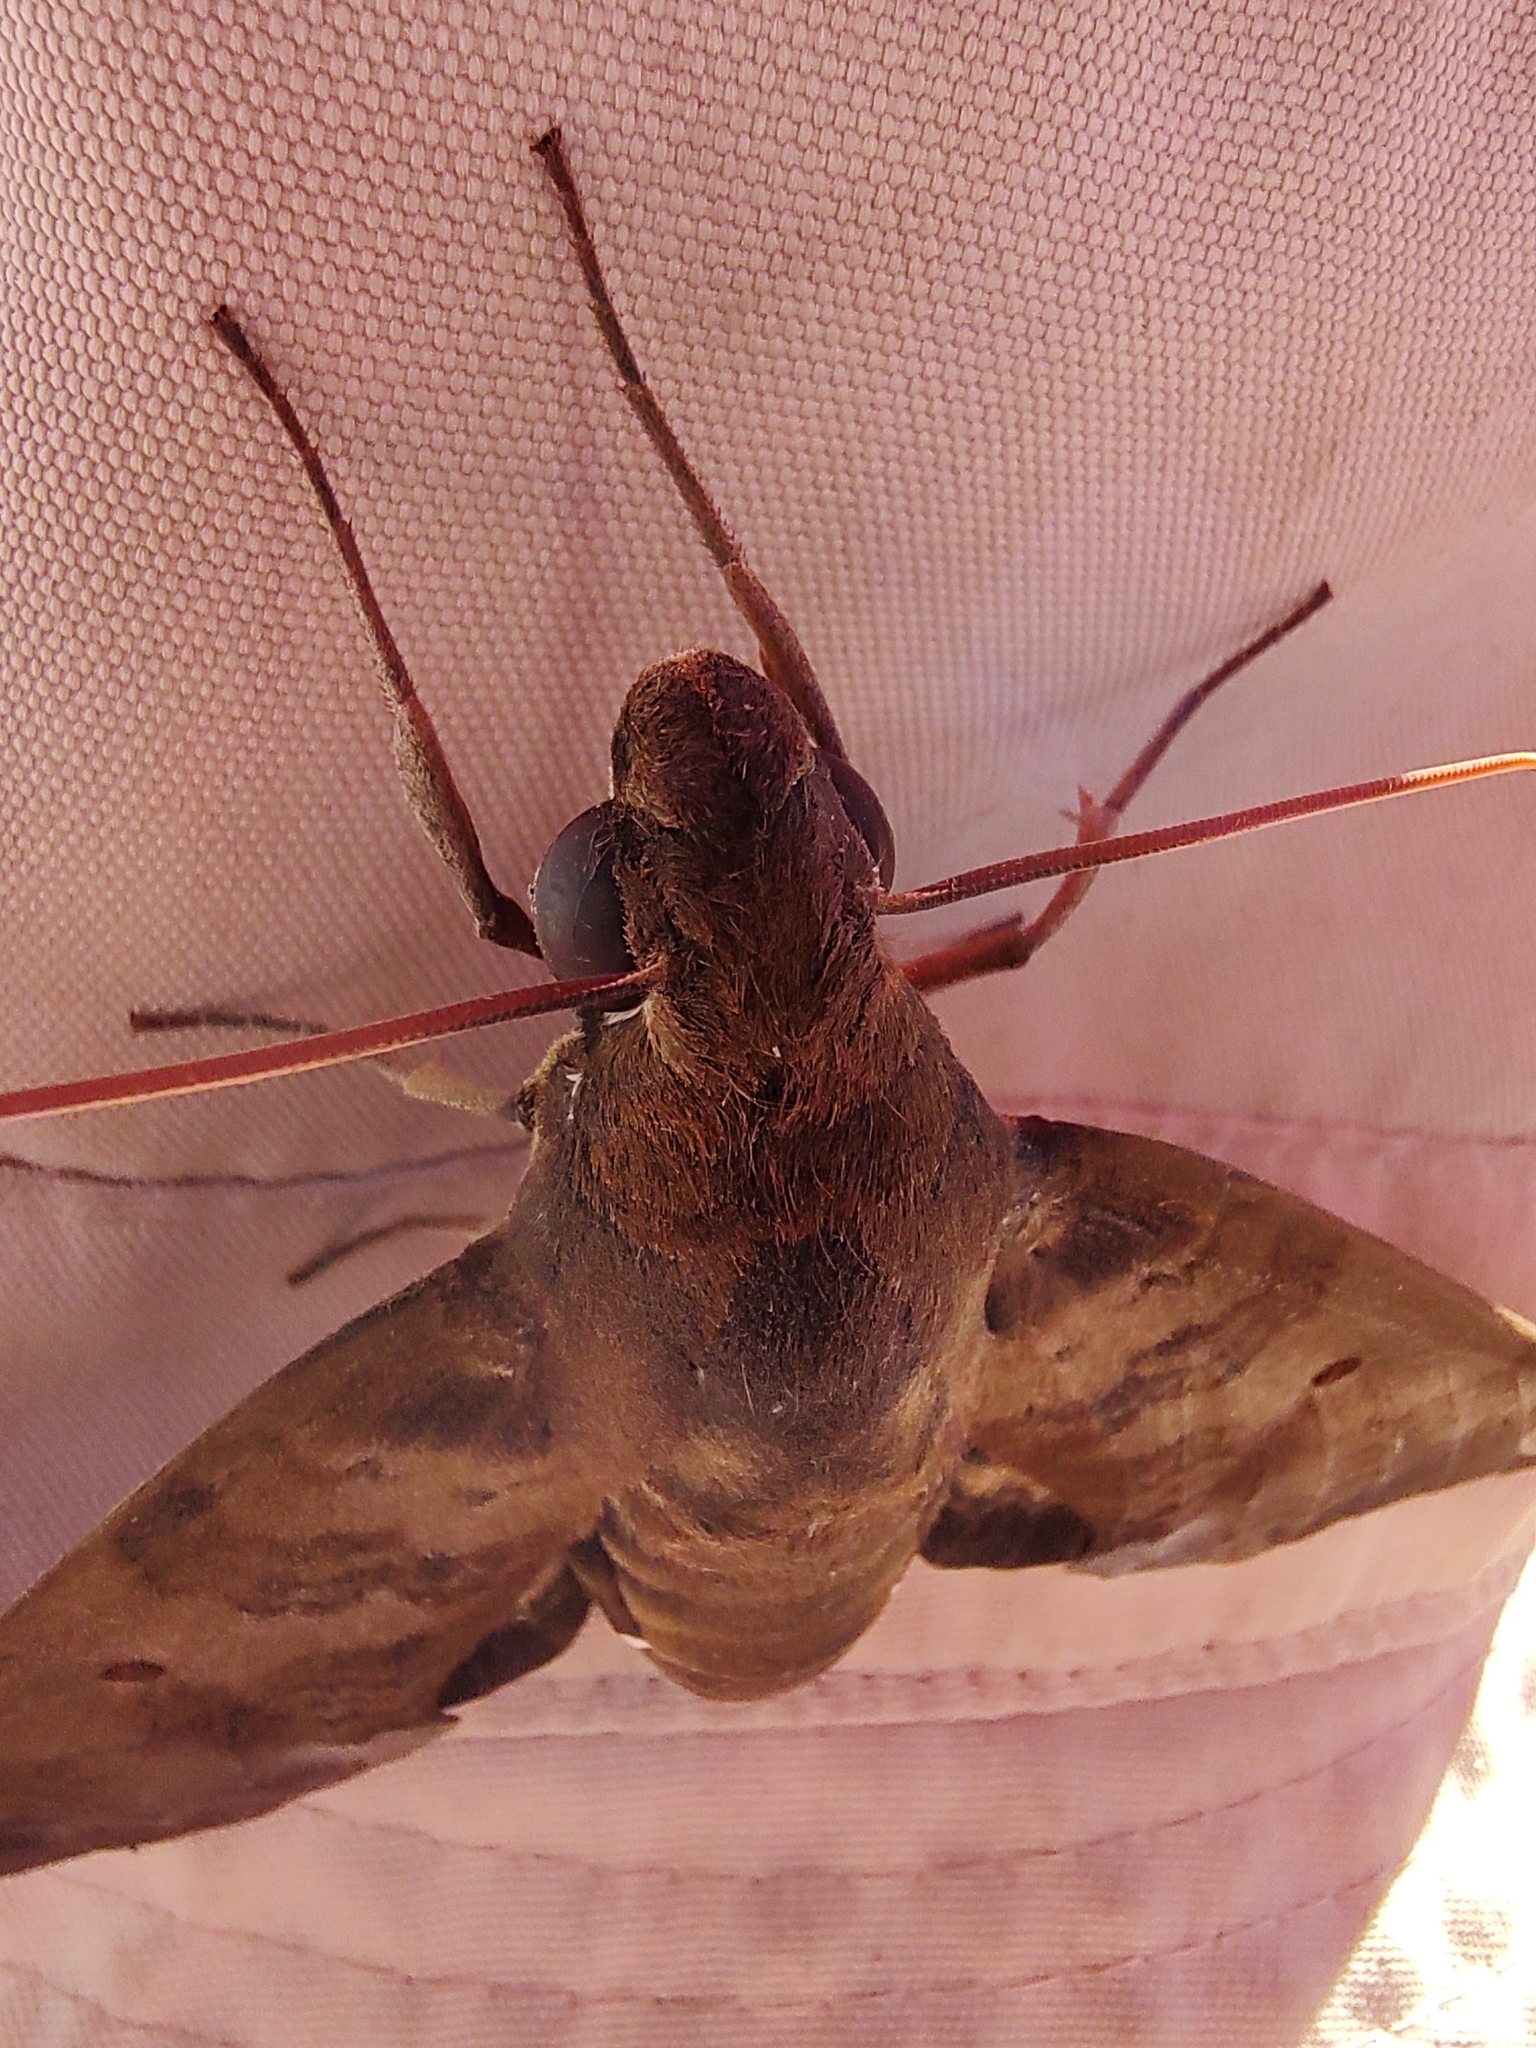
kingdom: Animalia
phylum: Arthropoda
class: Insecta
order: Lepidoptera
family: Sphingidae
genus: Pachylia
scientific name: Pachylia ficus
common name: Fig sphinx
